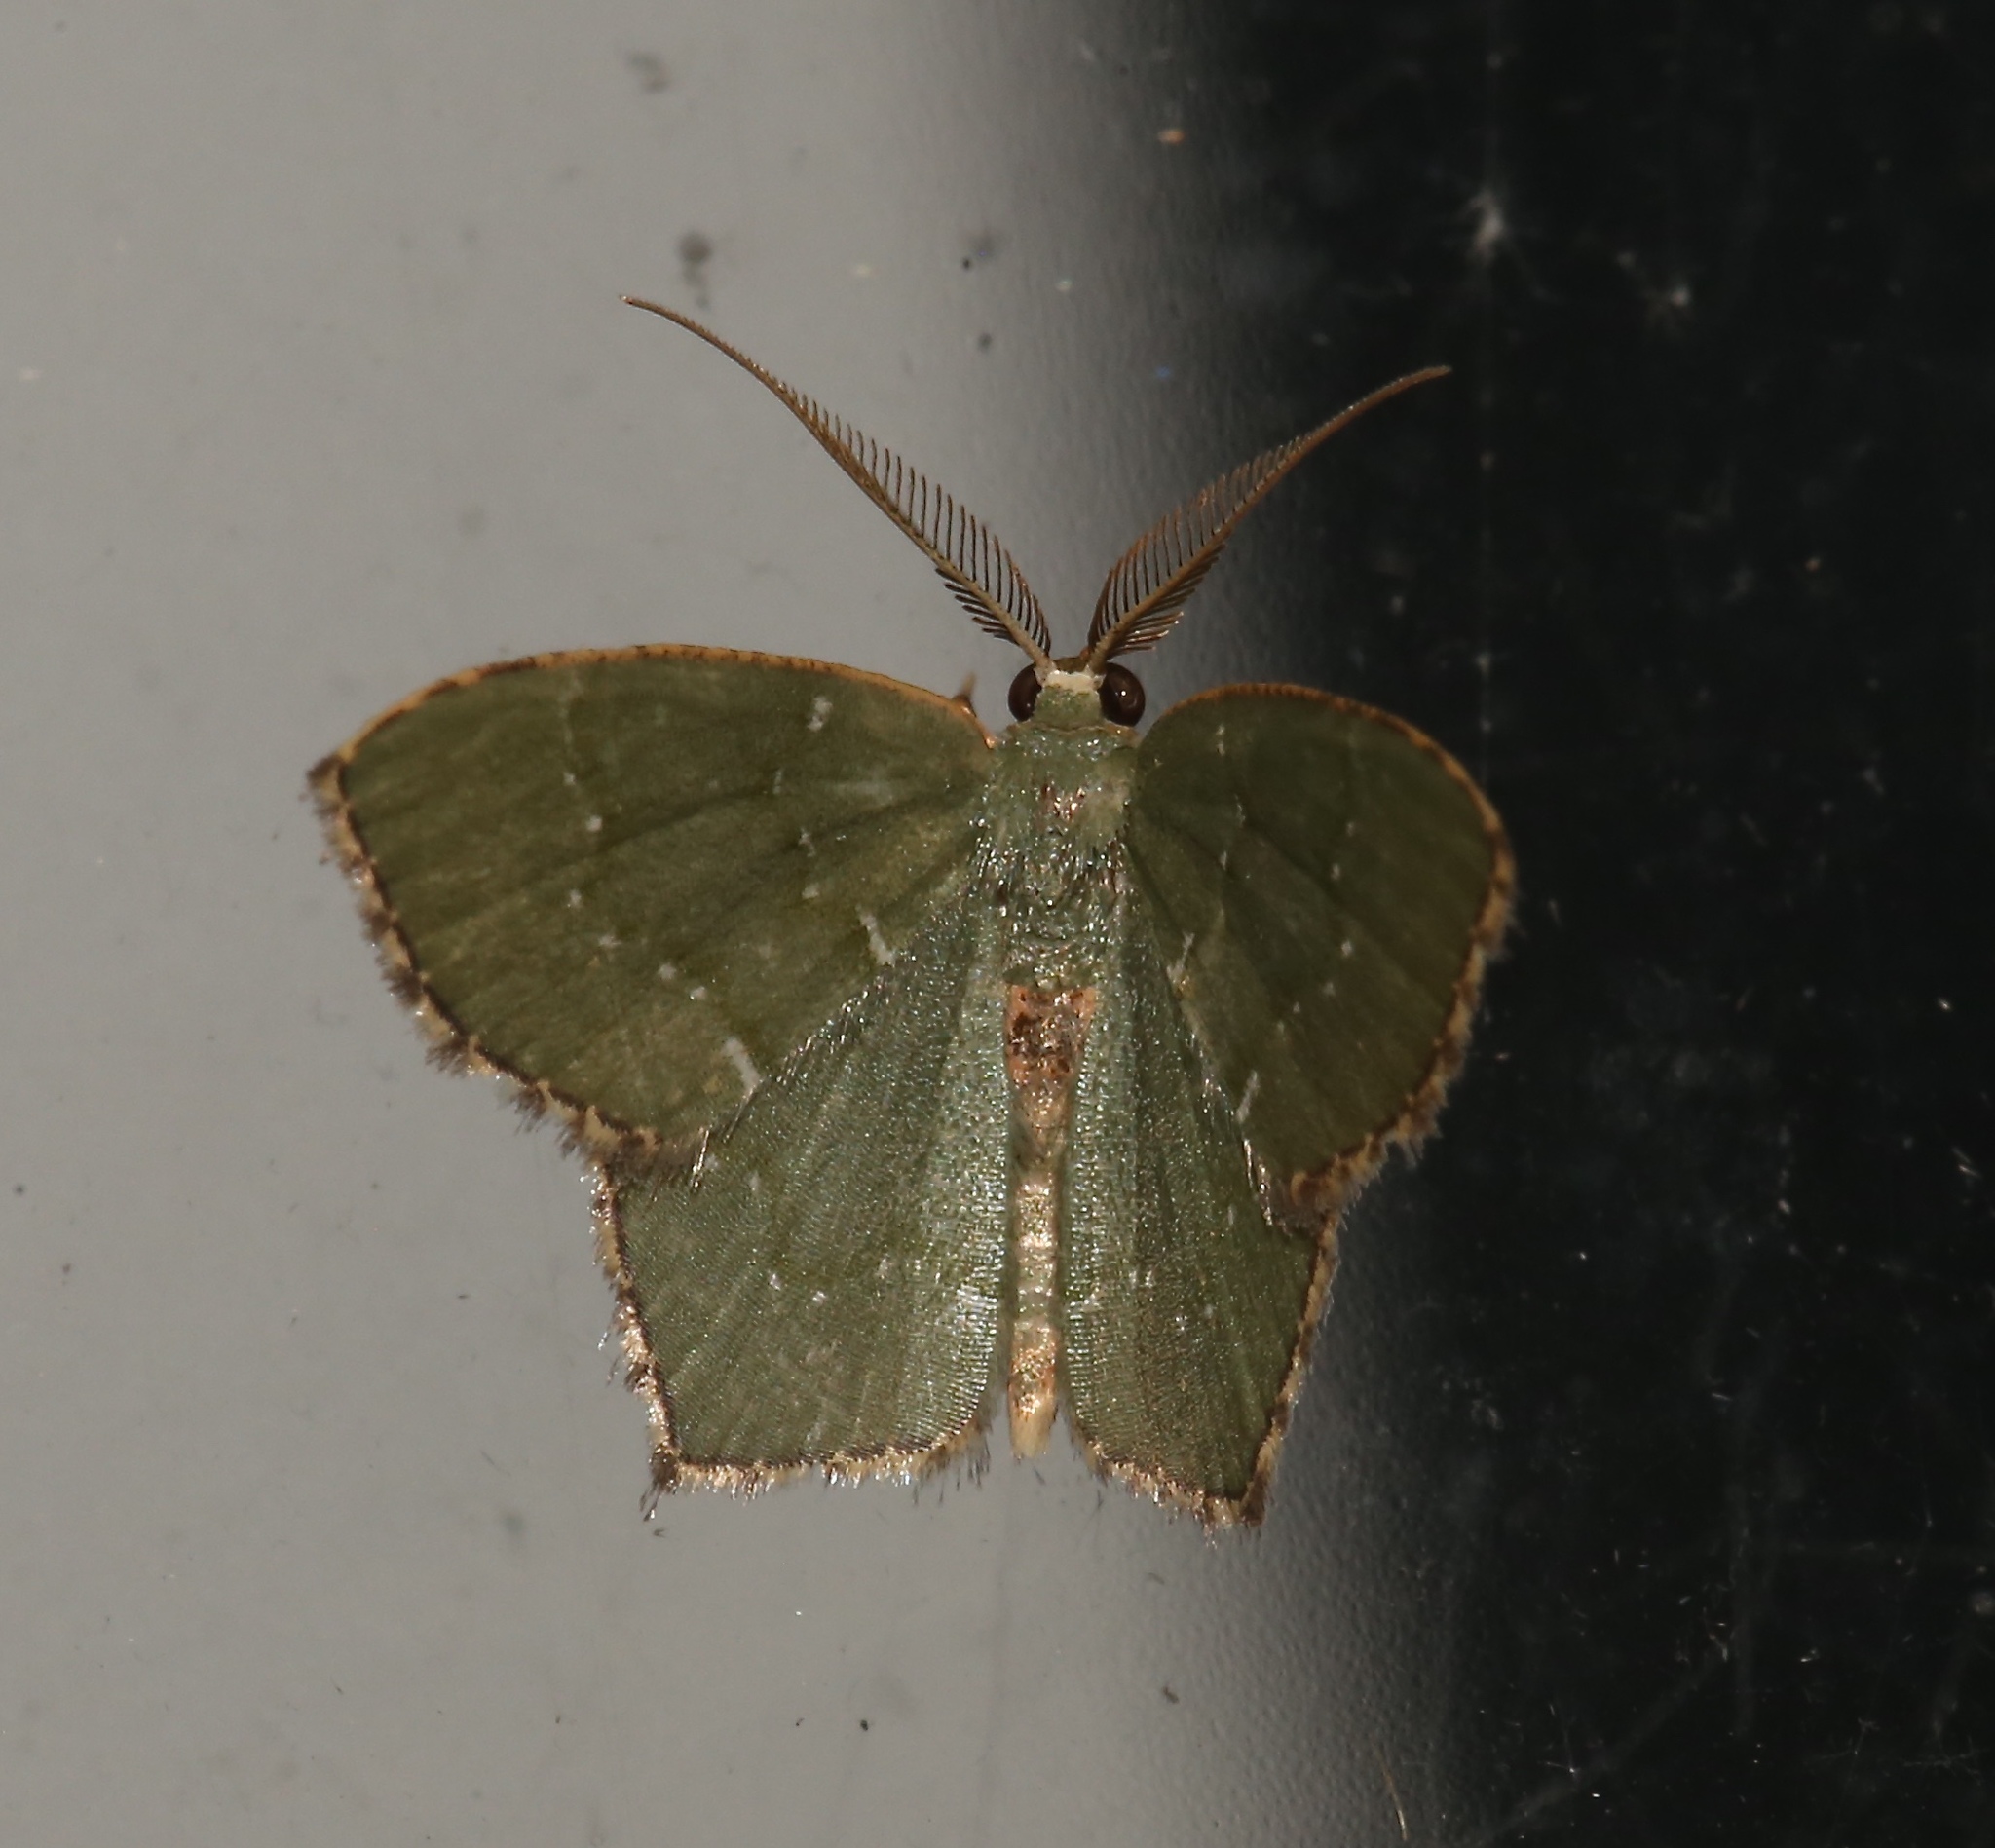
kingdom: Animalia
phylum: Arthropoda
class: Insecta
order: Lepidoptera
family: Geometridae
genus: Chloropteryx
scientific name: Chloropteryx tepperaria
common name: Angle winged emerald moth
